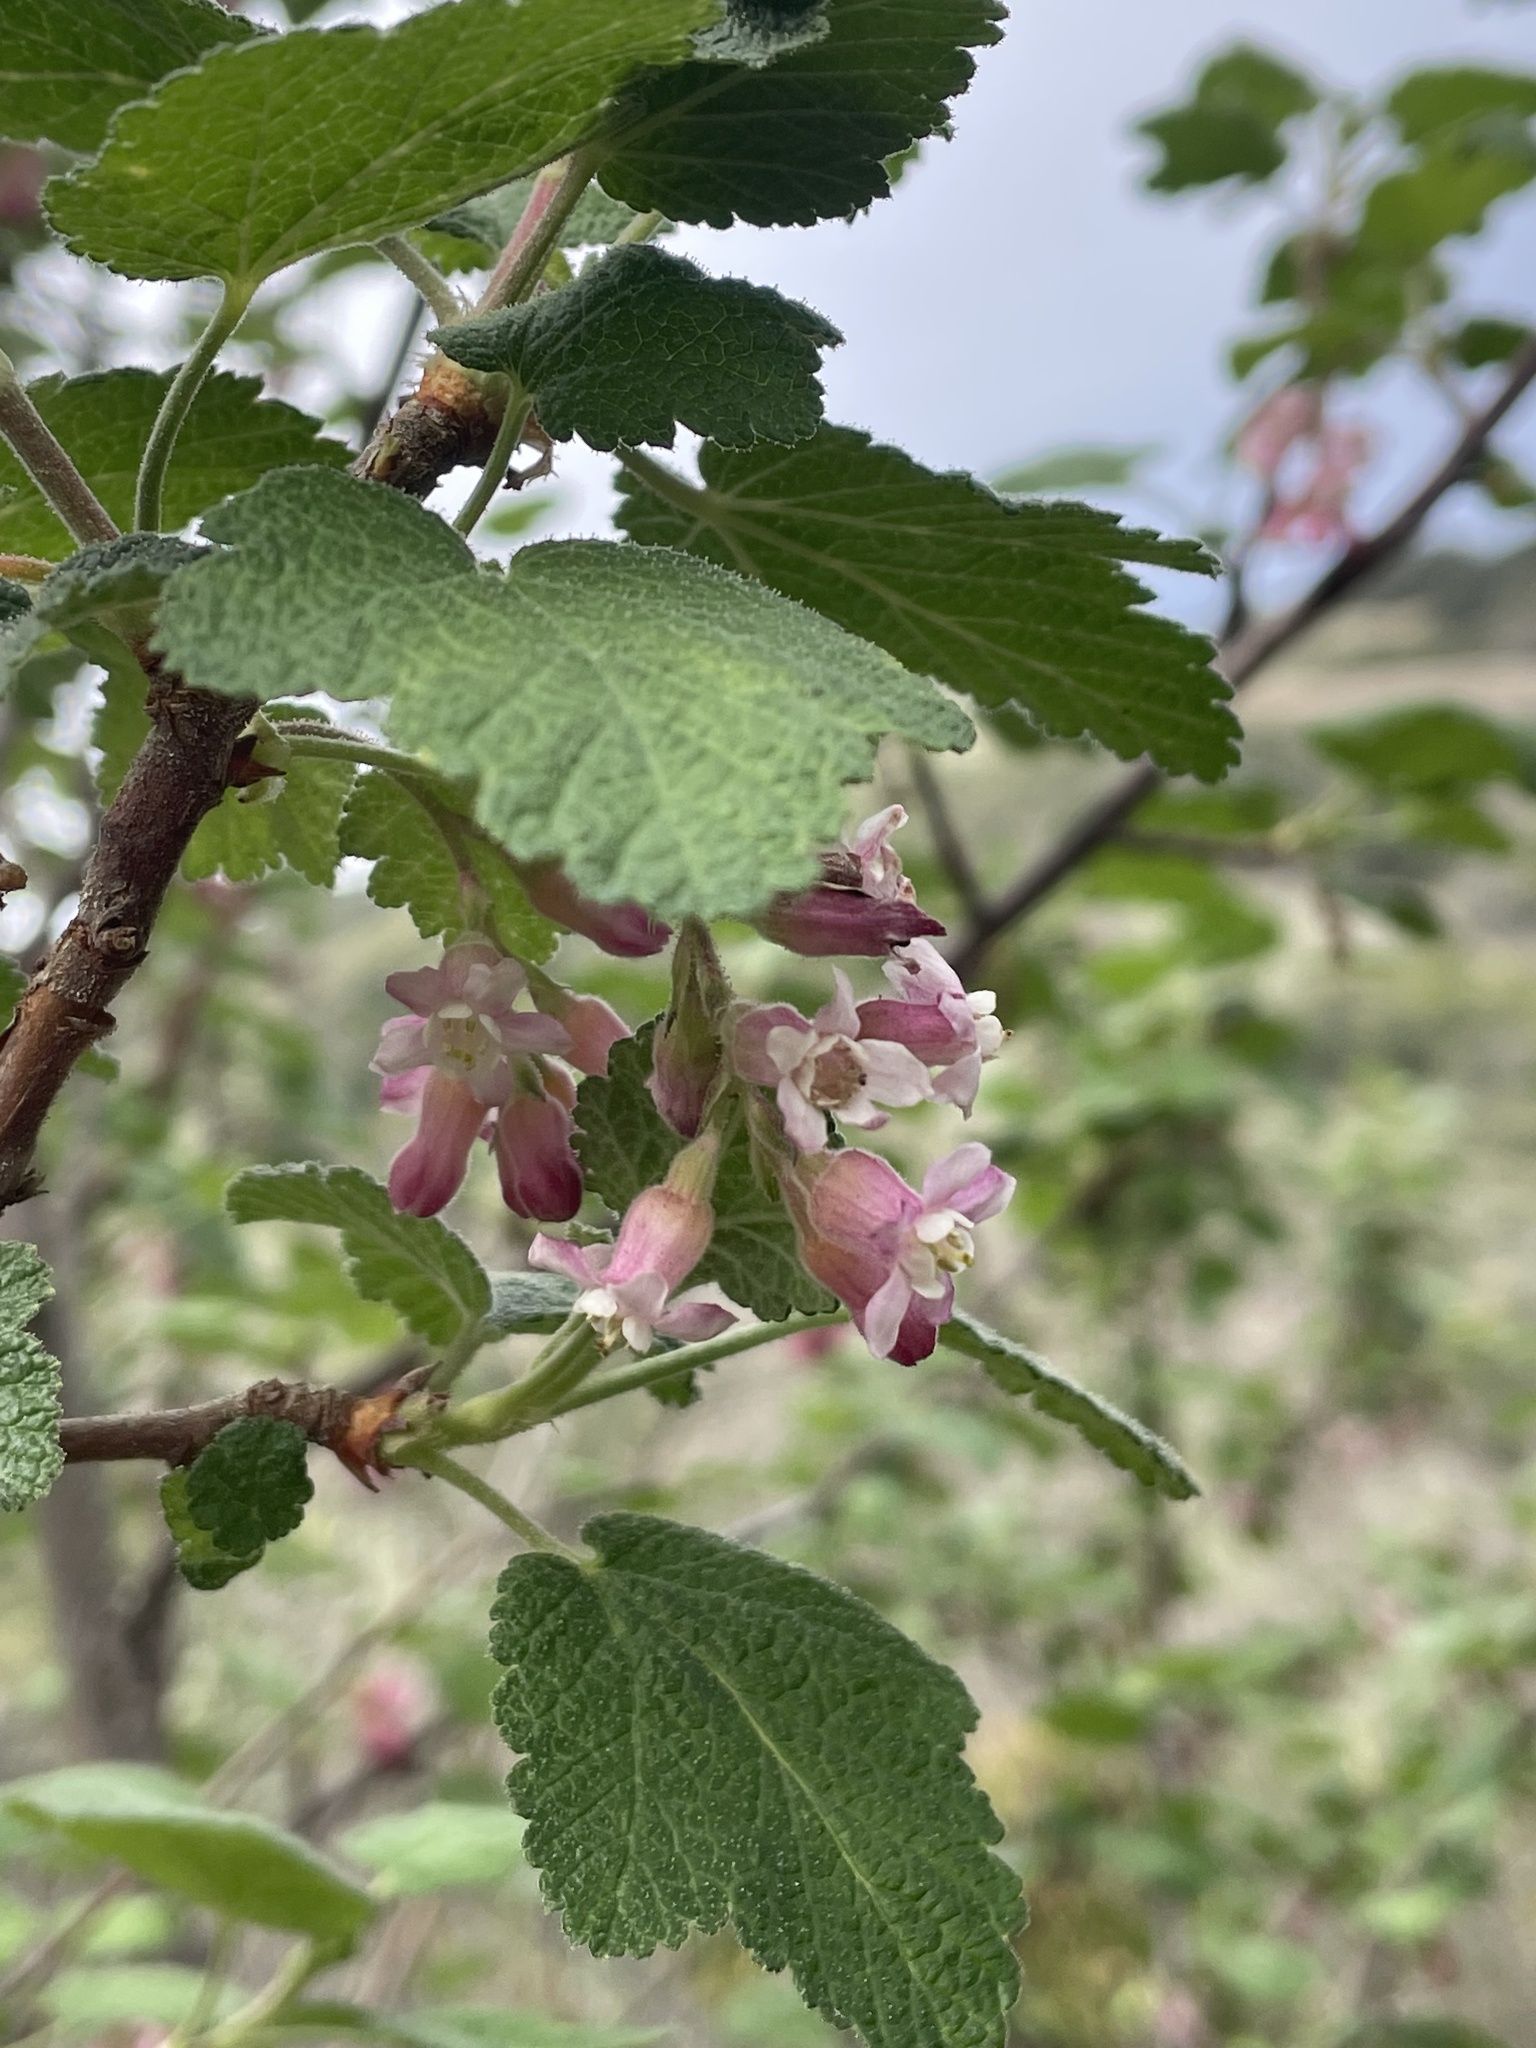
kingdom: Plantae
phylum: Tracheophyta
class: Magnoliopsida
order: Saxifragales
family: Grossulariaceae
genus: Ribes
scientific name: Ribes malvaceum
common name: Chaparral currant
